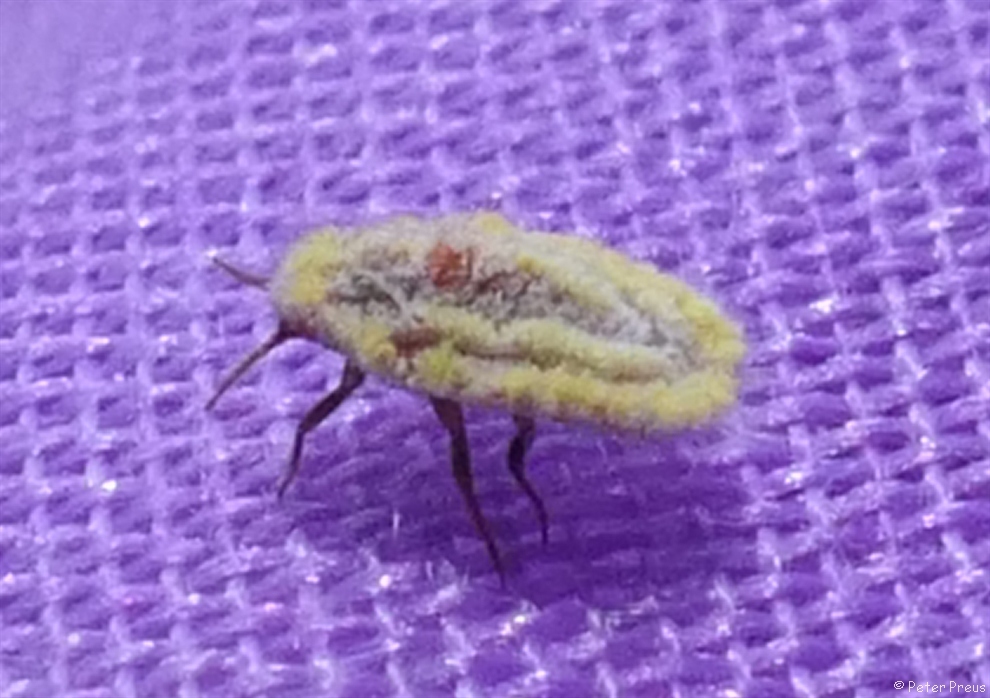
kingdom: Animalia
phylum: Arthropoda
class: Insecta
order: Hemiptera
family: Margarodidae
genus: Icerya
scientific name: Icerya seychellarum
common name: Iceplant scale
